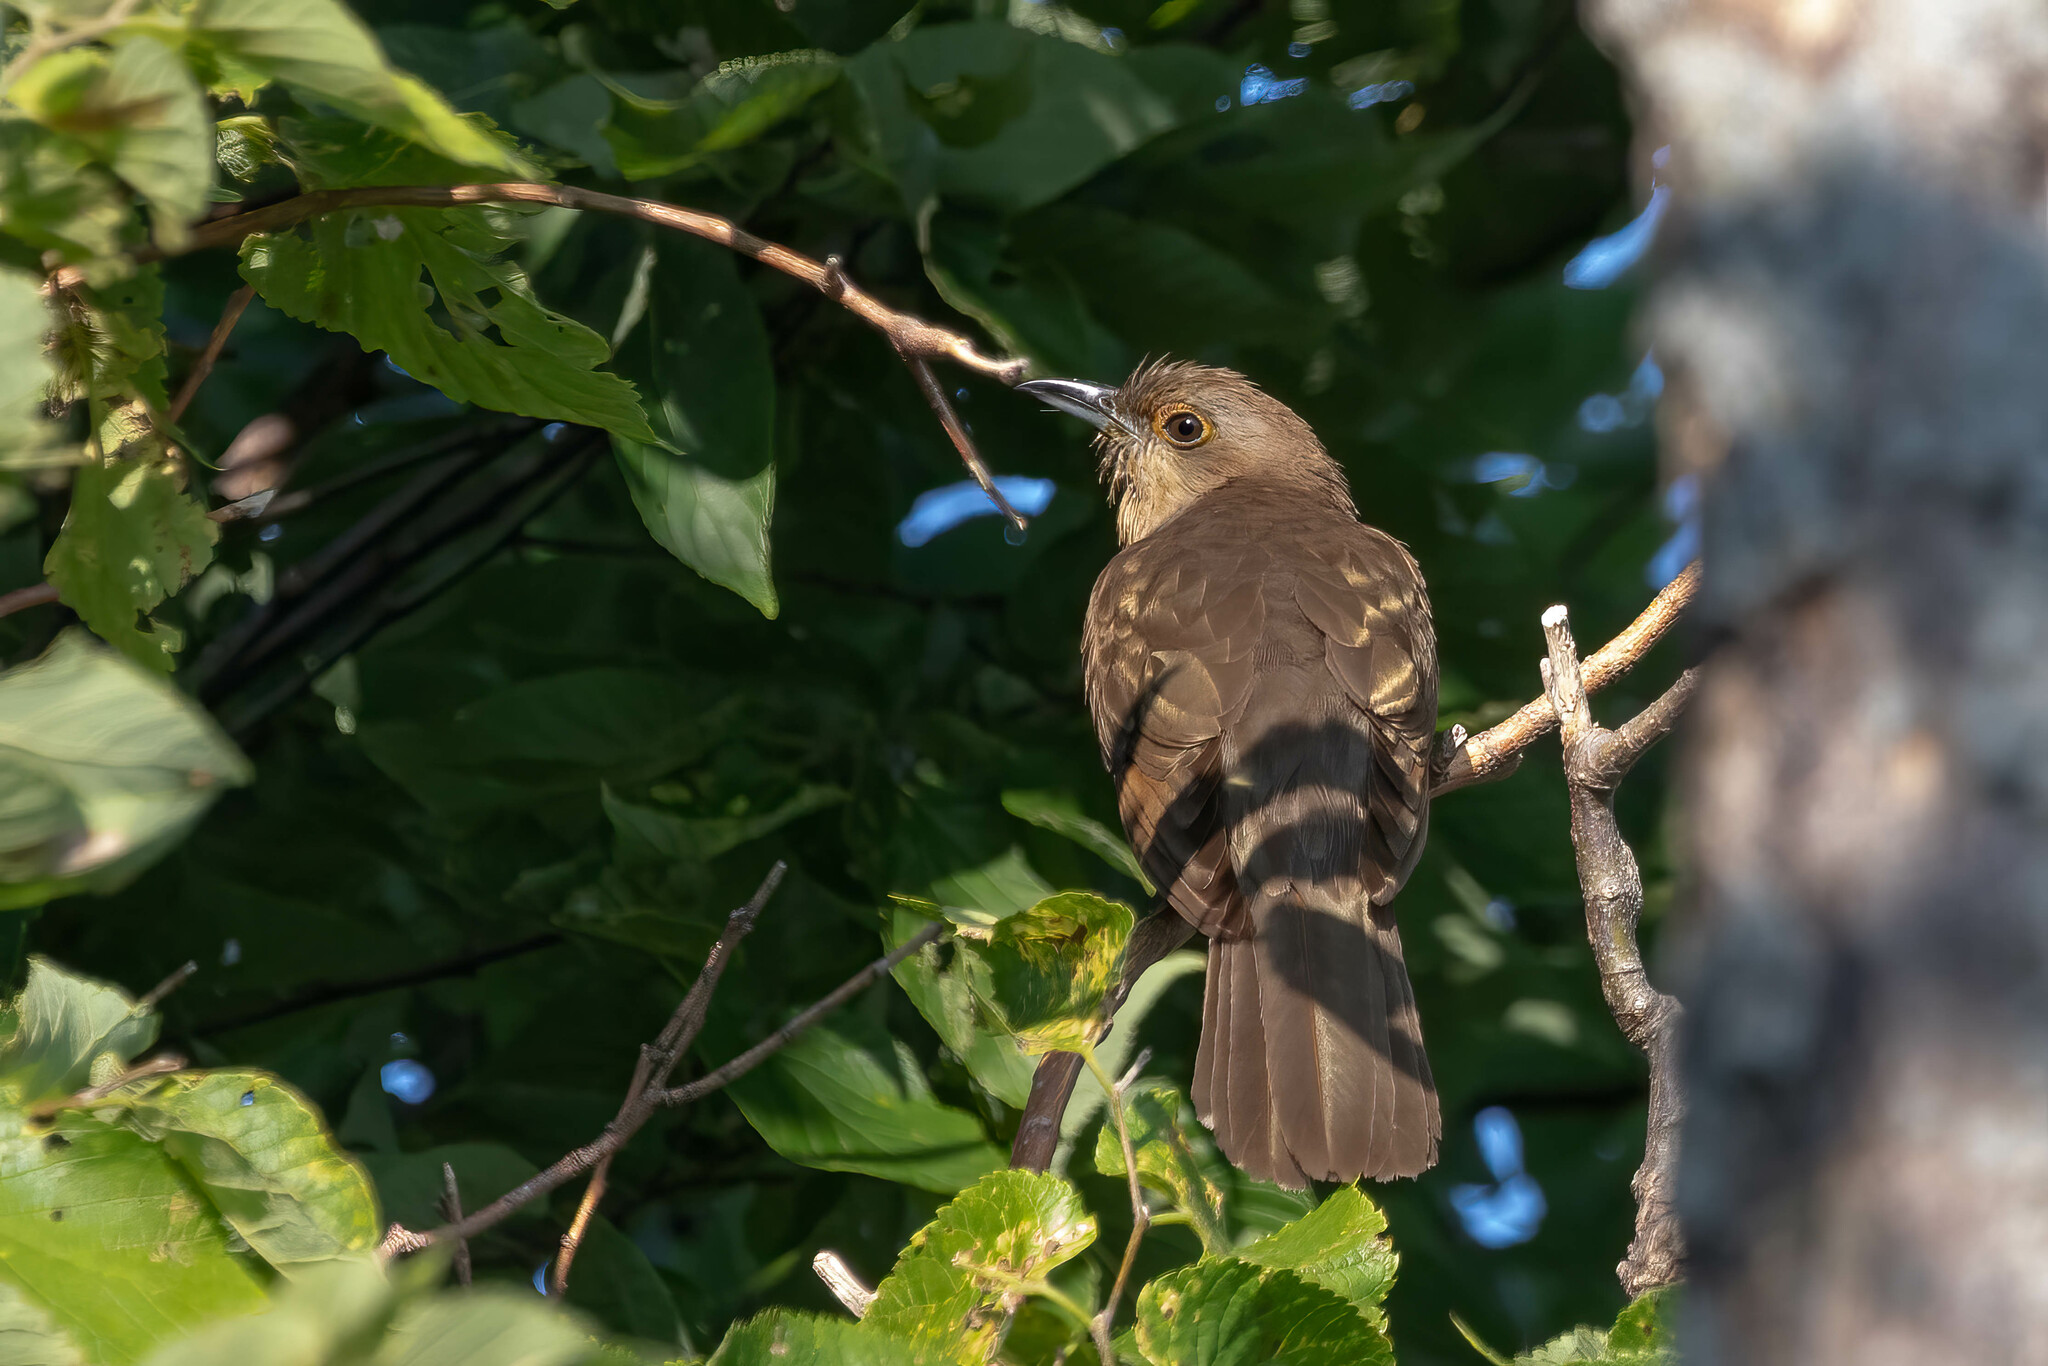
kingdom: Animalia
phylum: Chordata
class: Aves
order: Cuculiformes
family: Cuculidae
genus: Coccyzus
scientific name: Coccyzus erythropthalmus
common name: Black-billed cuckoo
